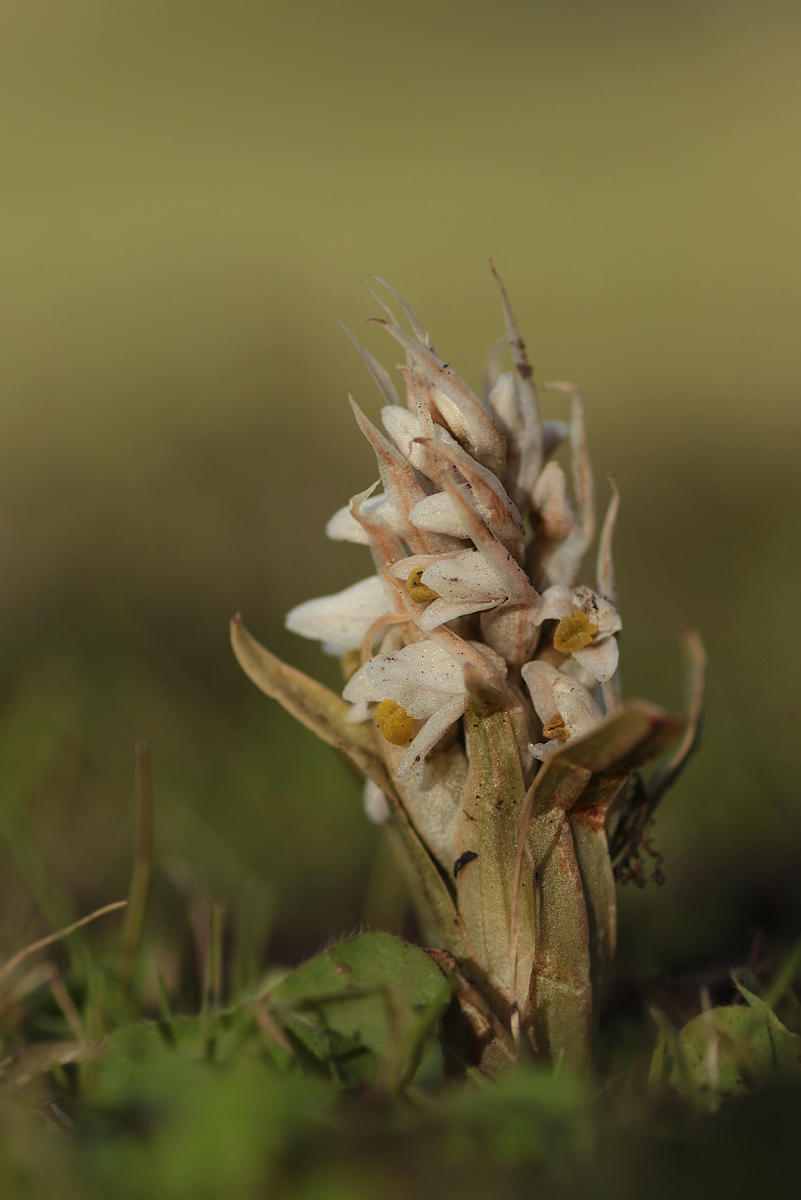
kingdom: Plantae
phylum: Tracheophyta
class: Liliopsida
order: Asparagales
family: Orchidaceae
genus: Zeuxine
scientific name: Zeuxine strateumatica
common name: Soldier's orchid
